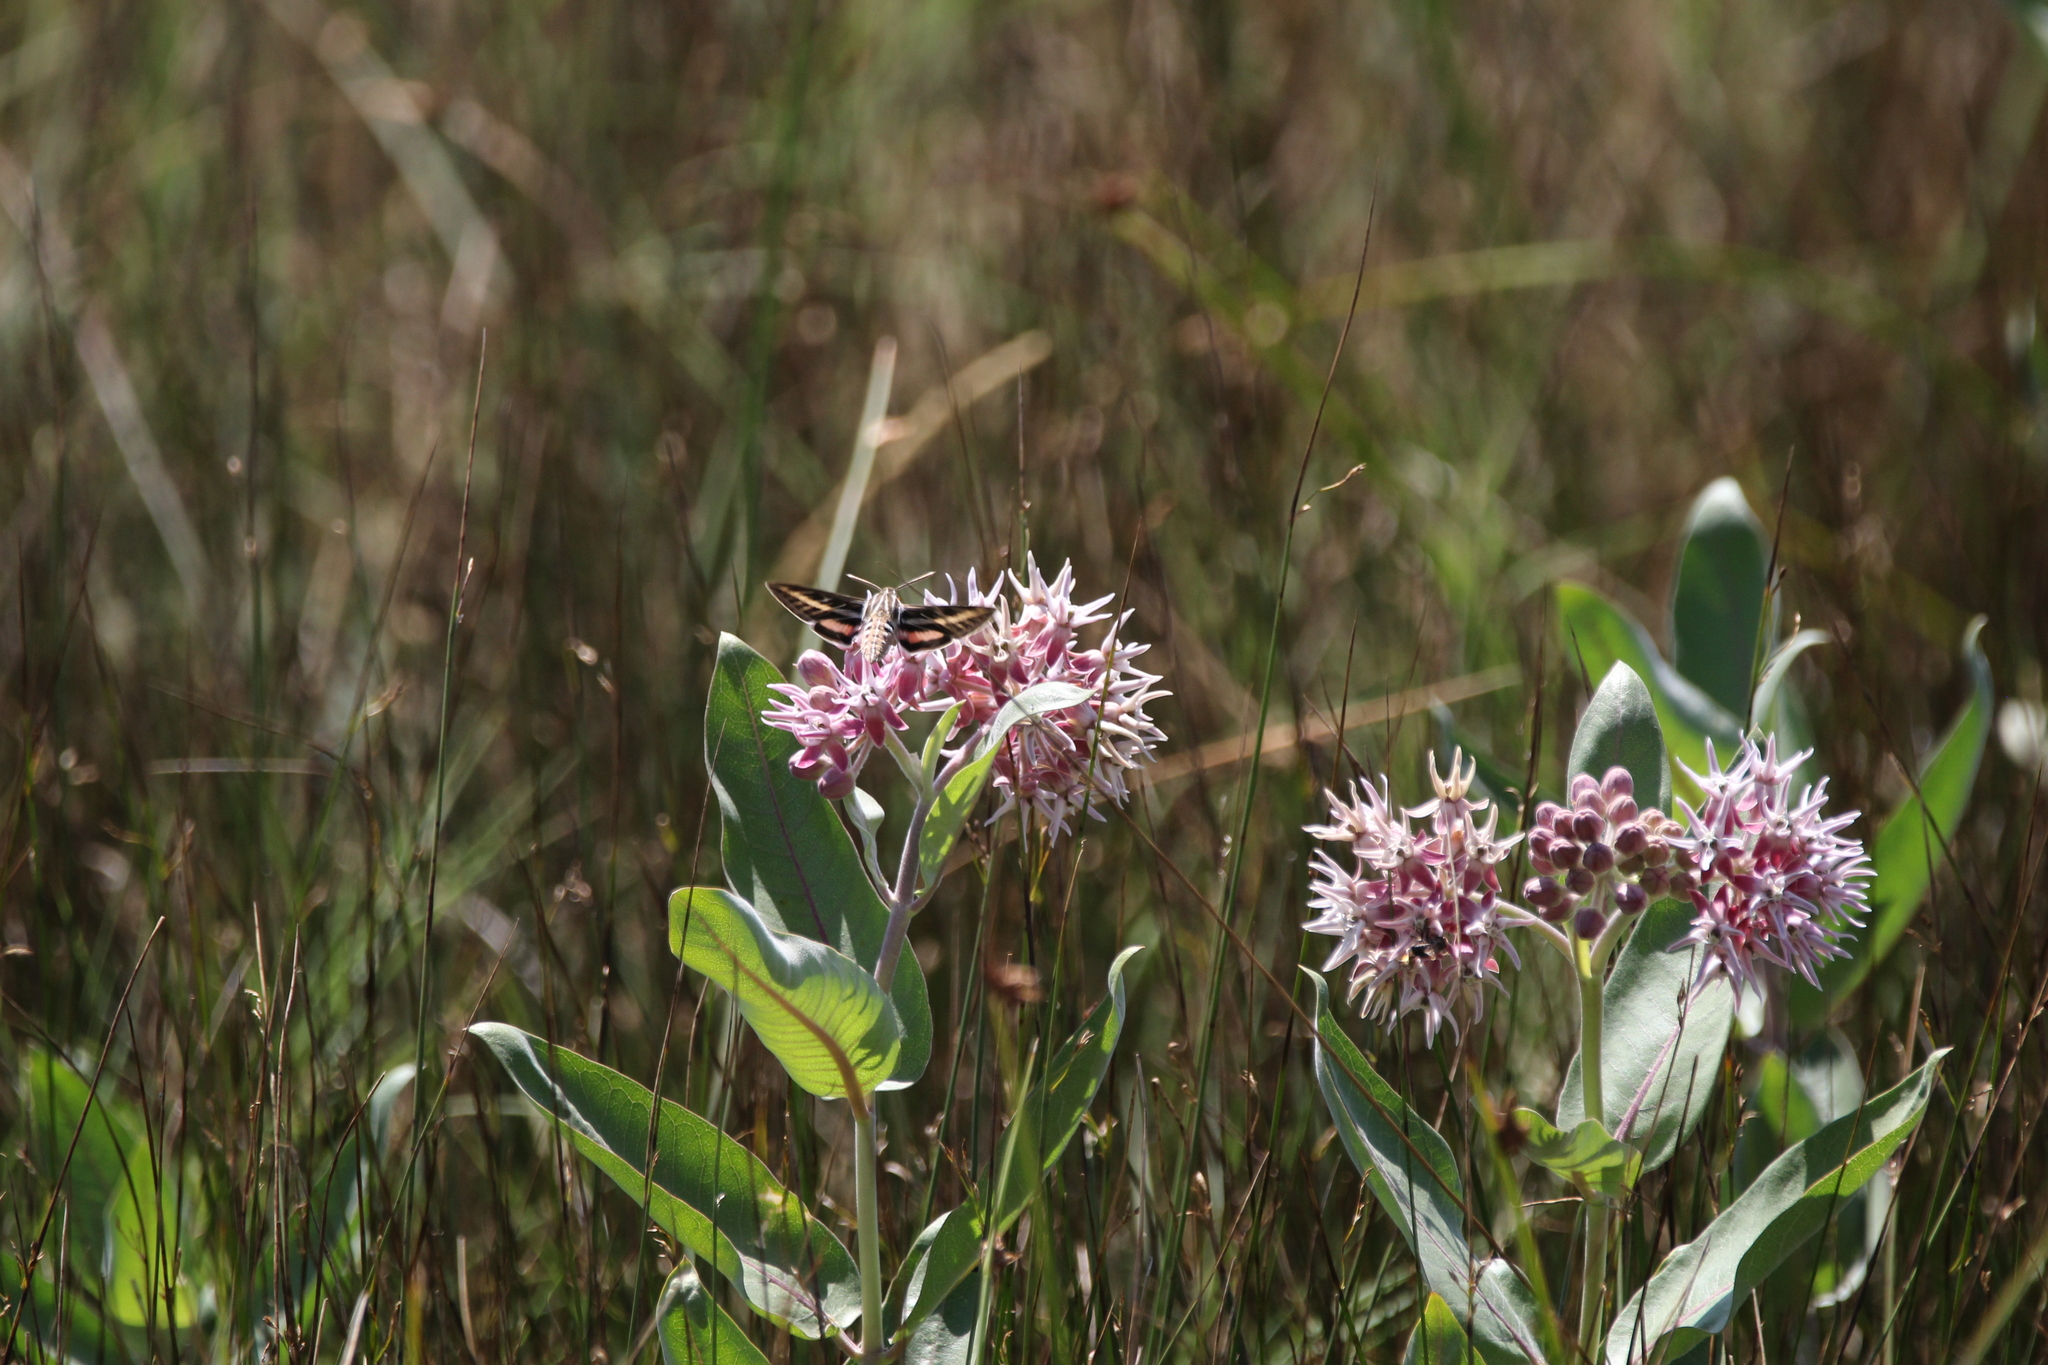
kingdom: Animalia
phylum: Arthropoda
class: Insecta
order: Lepidoptera
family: Sphingidae
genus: Hyles
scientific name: Hyles lineata
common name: White-lined sphinx
